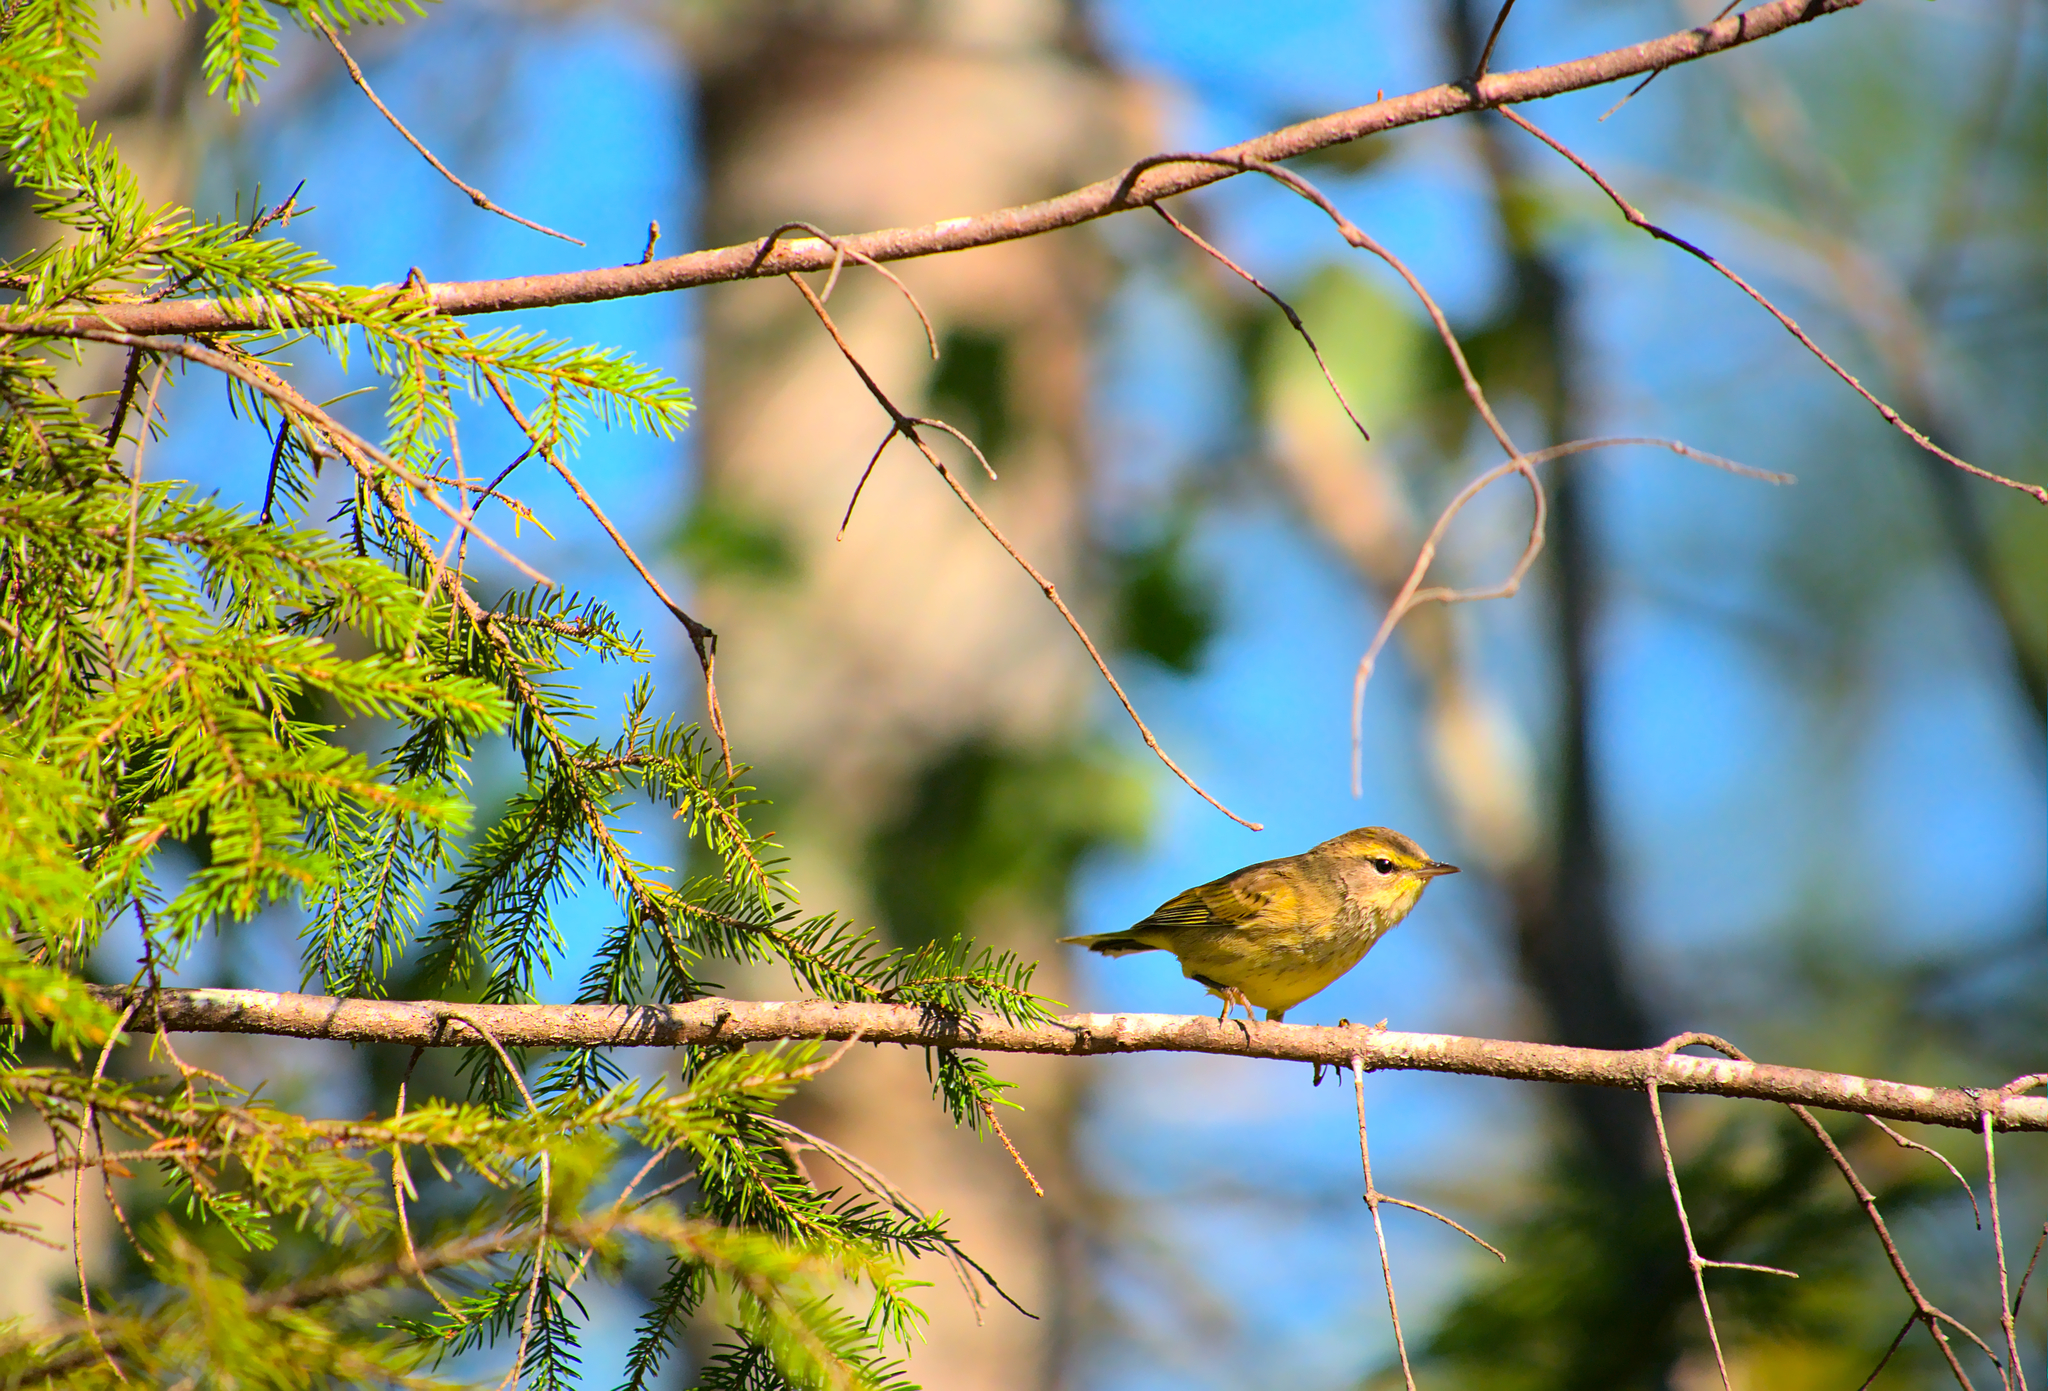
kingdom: Animalia
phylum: Chordata
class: Aves
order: Passeriformes
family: Parulidae
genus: Setophaga
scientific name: Setophaga palmarum
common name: Palm warbler
